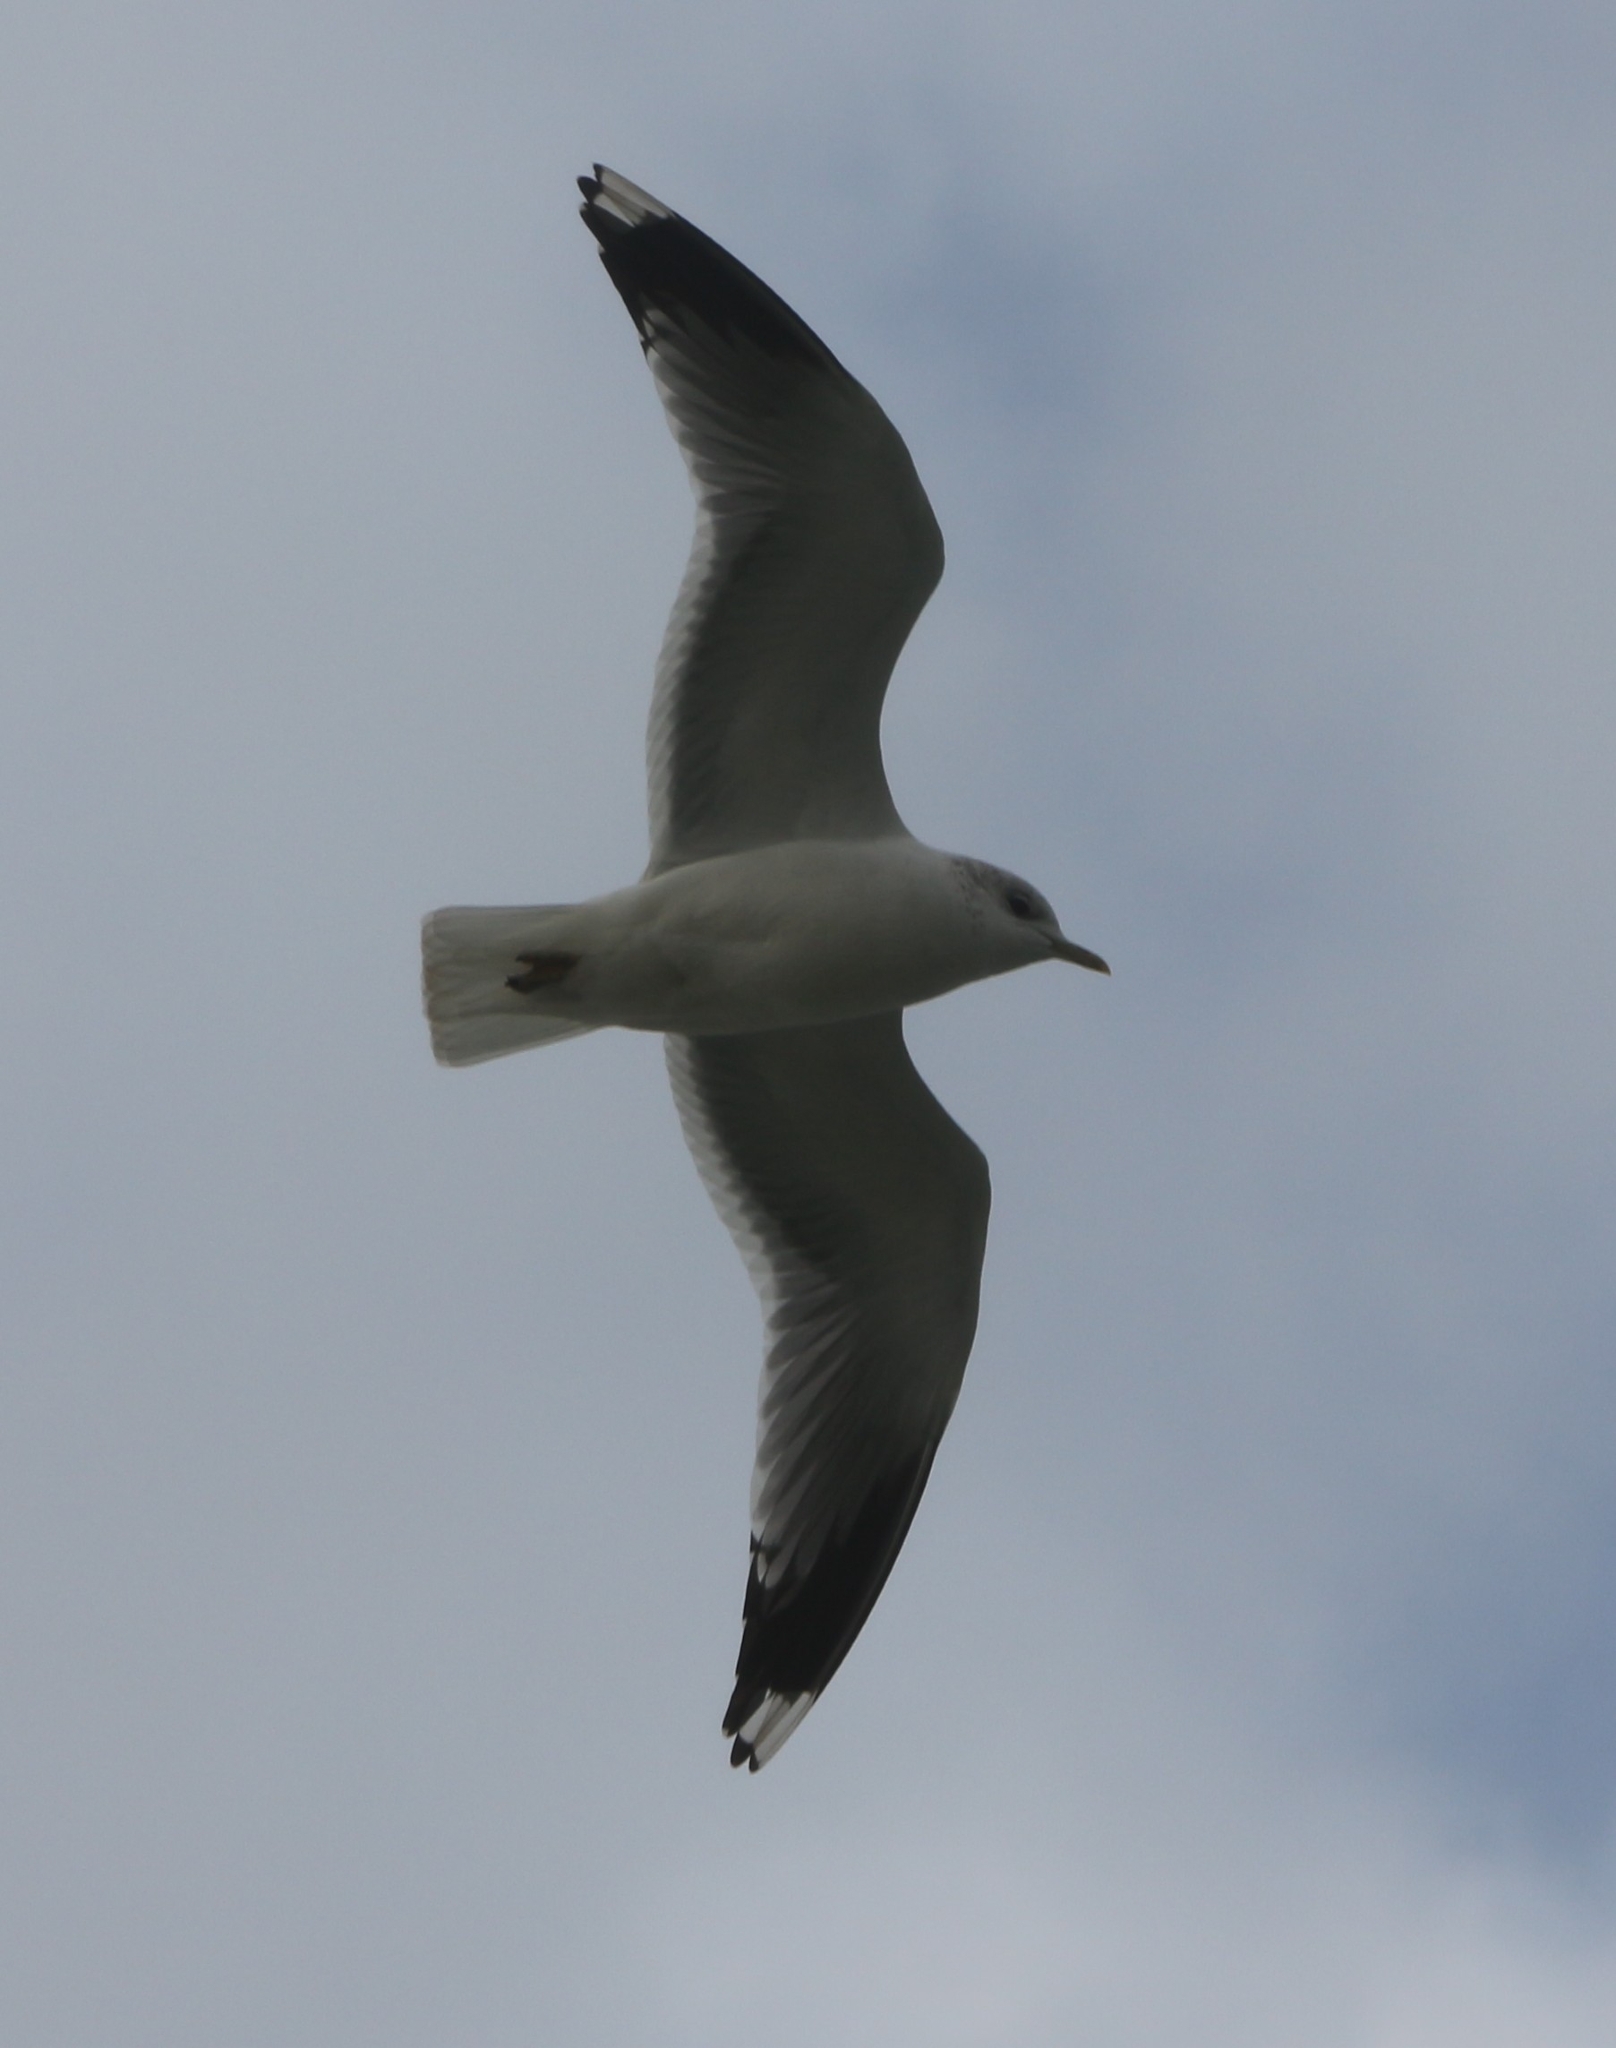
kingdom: Animalia
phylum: Chordata
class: Aves
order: Charadriiformes
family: Laridae
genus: Larus
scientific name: Larus canus
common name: Mew gull
